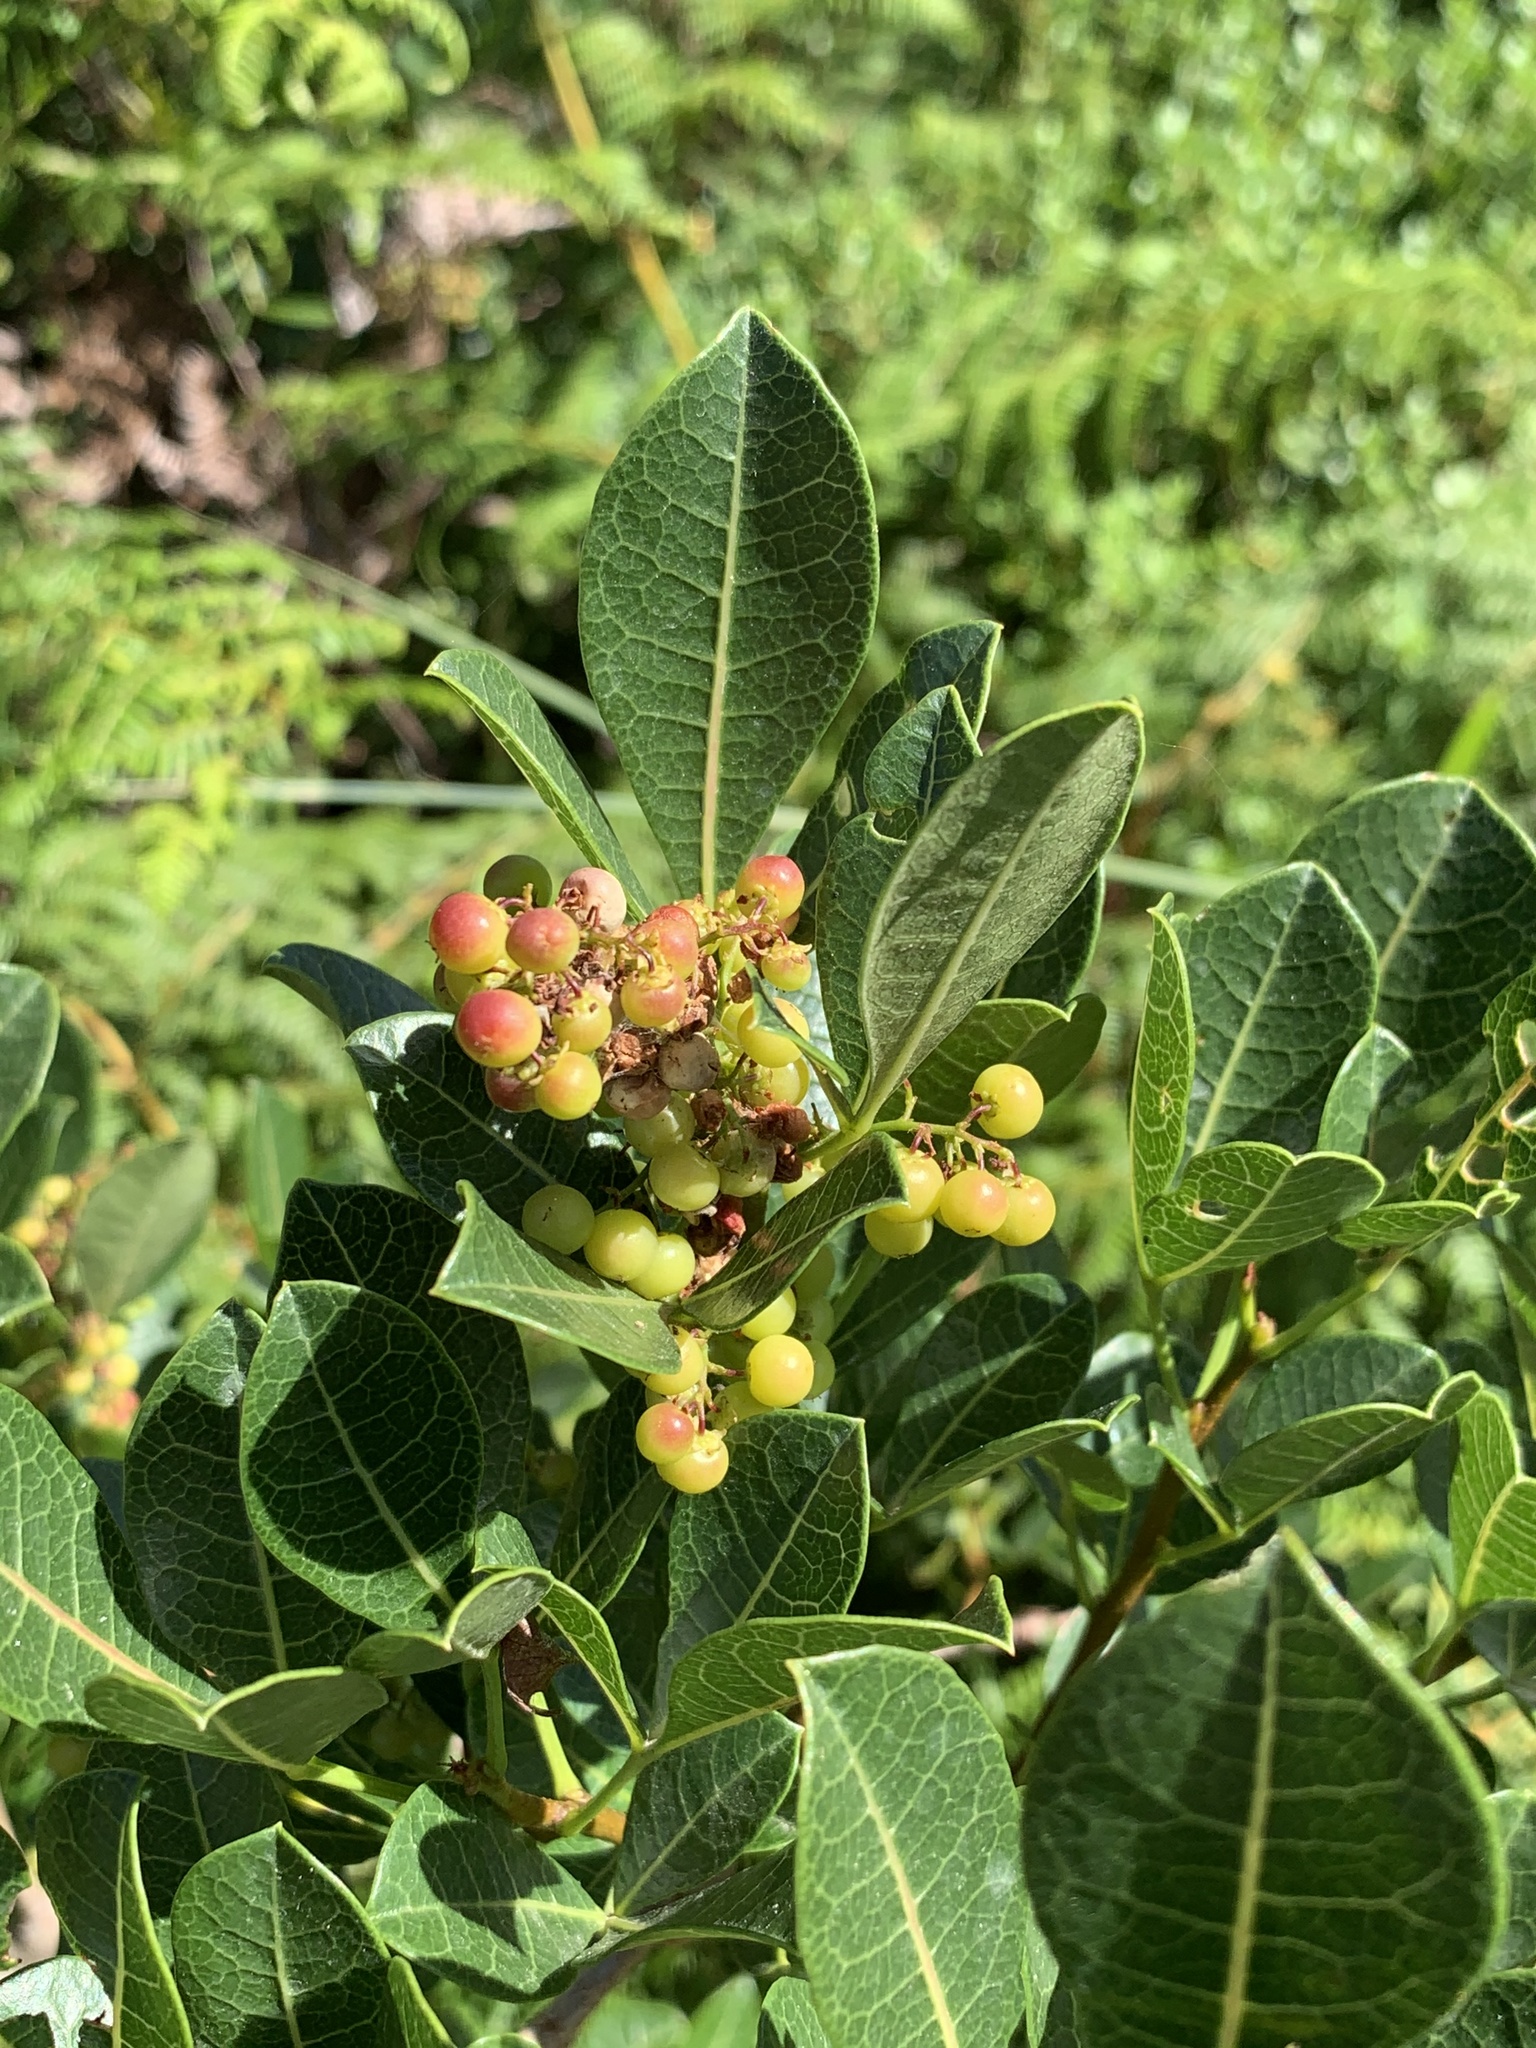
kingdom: Plantae
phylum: Tracheophyta
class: Magnoliopsida
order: Sapindales
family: Anacardiaceae
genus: Searsia
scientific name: Searsia laevigata
